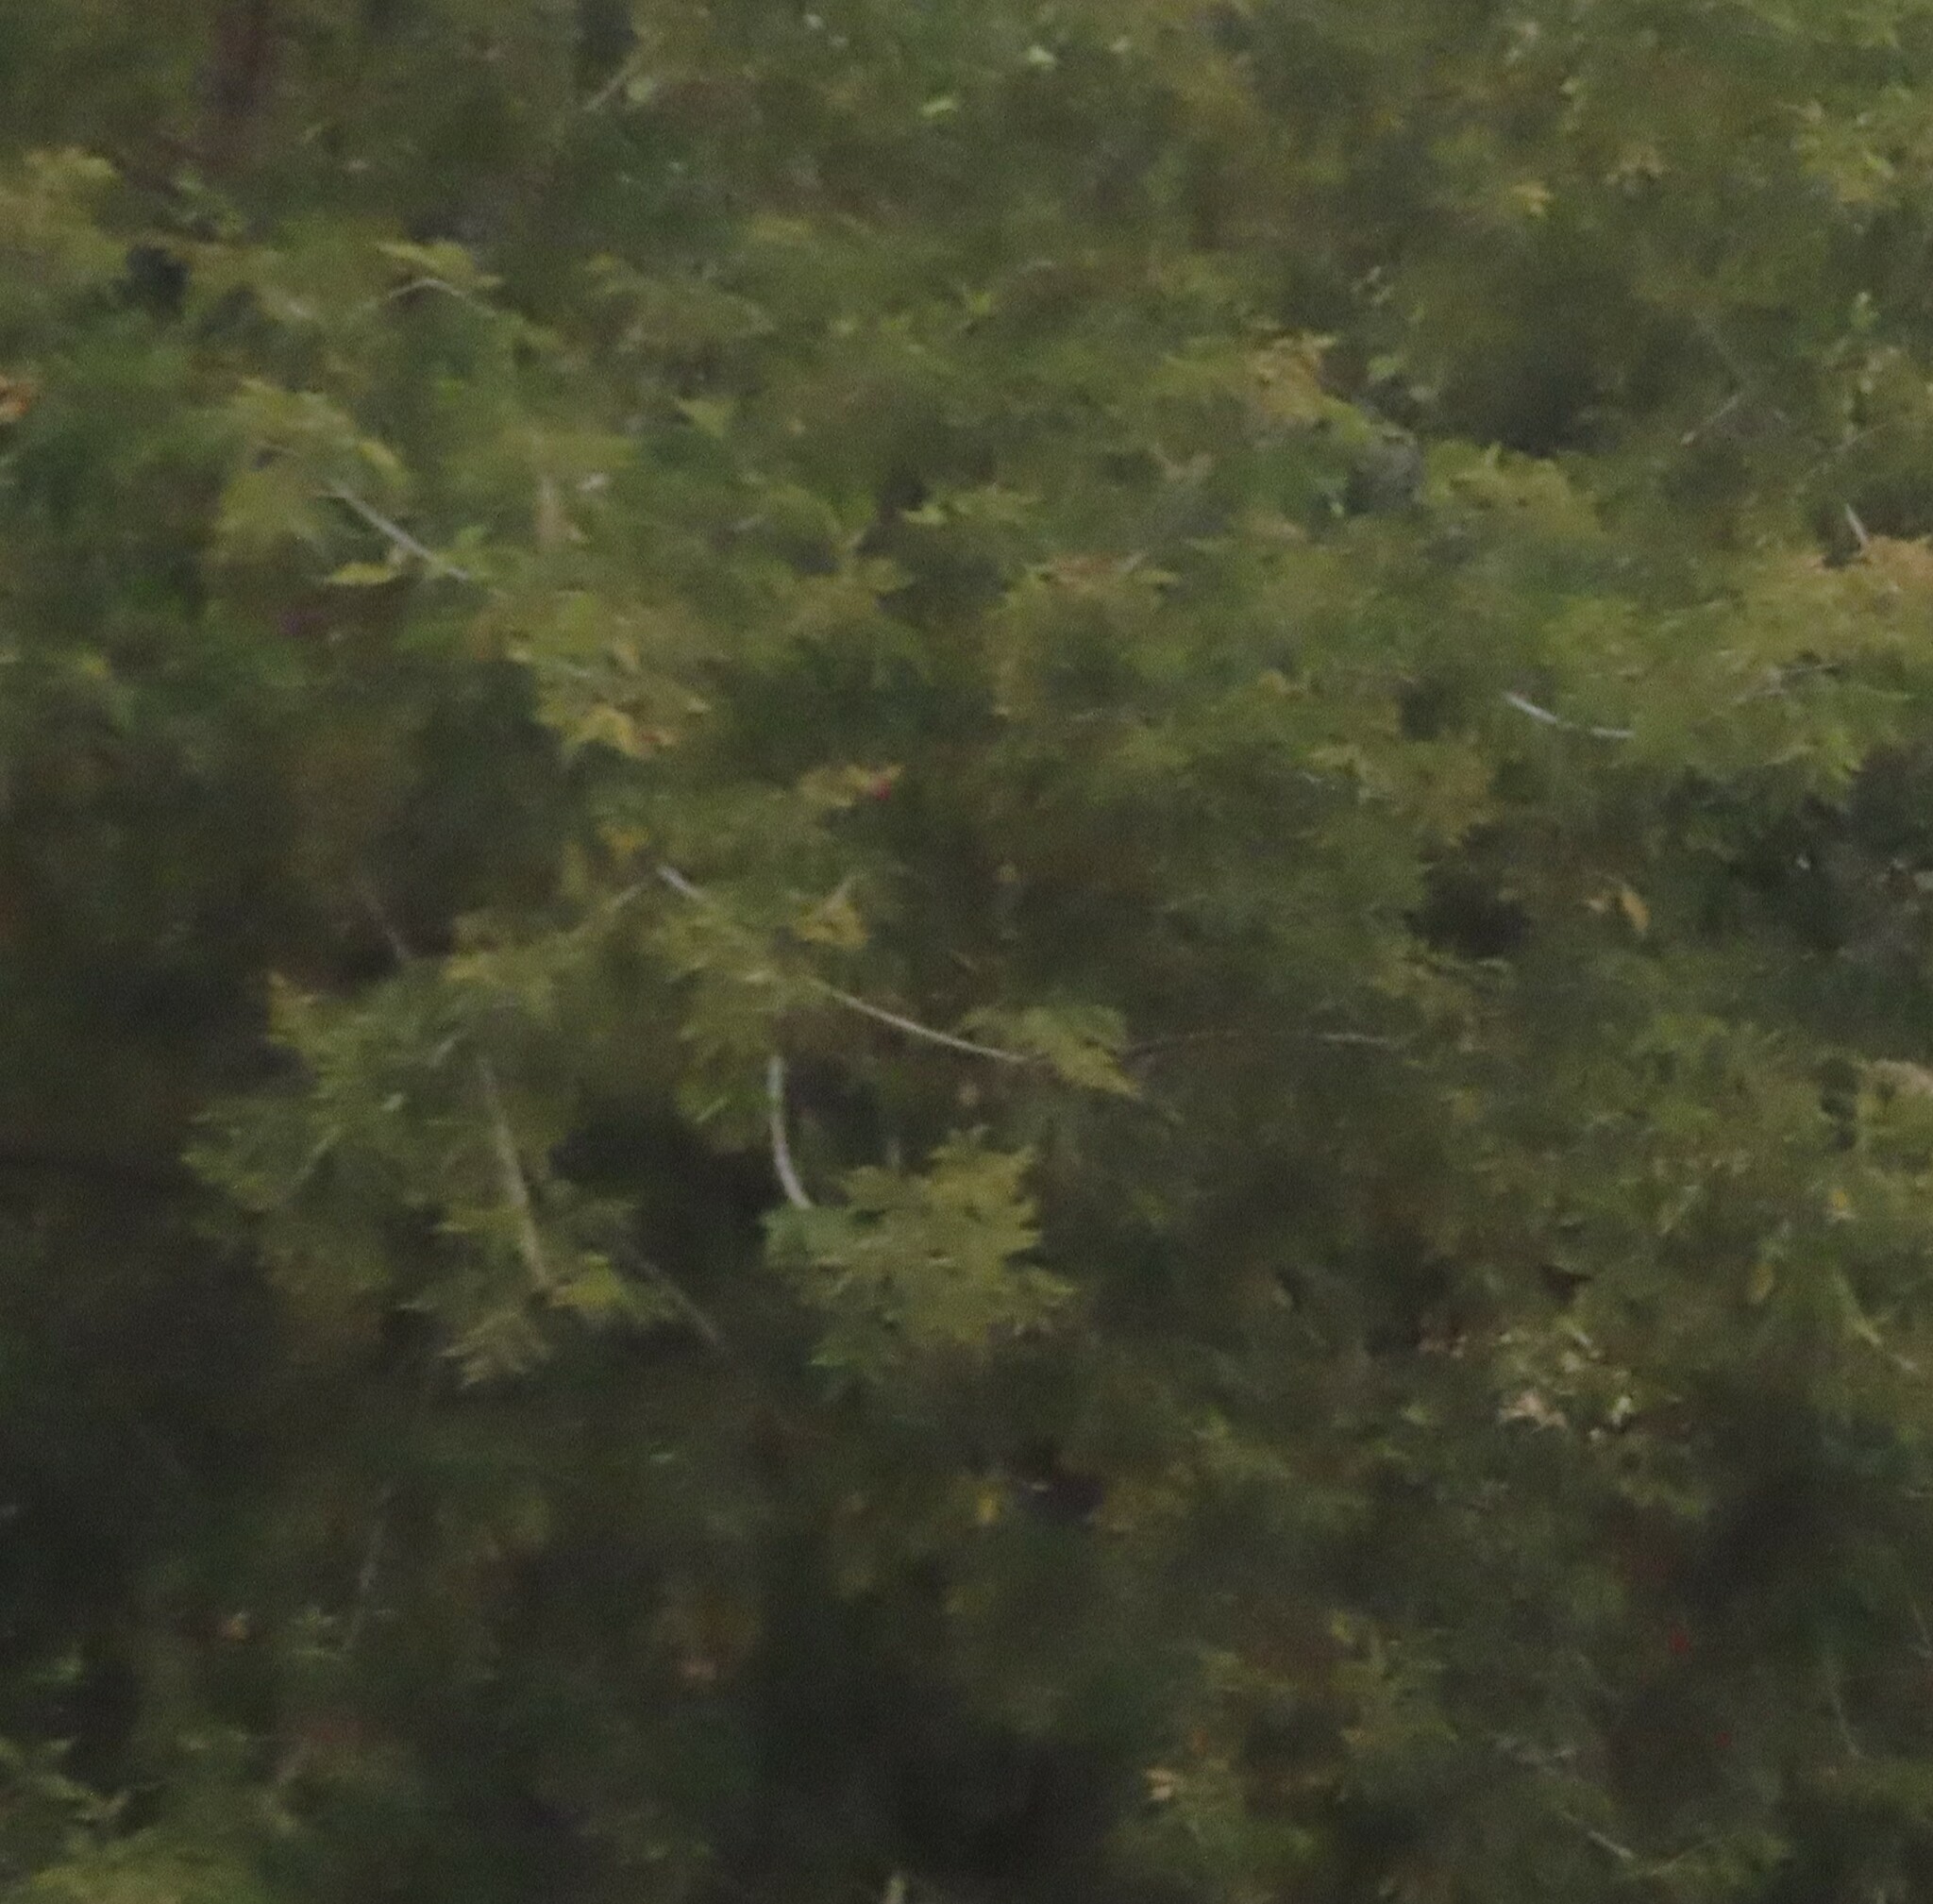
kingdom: Plantae
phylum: Tracheophyta
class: Magnoliopsida
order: Sapindales
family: Sapindaceae
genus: Acer
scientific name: Acer negundo
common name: Ashleaf maple
